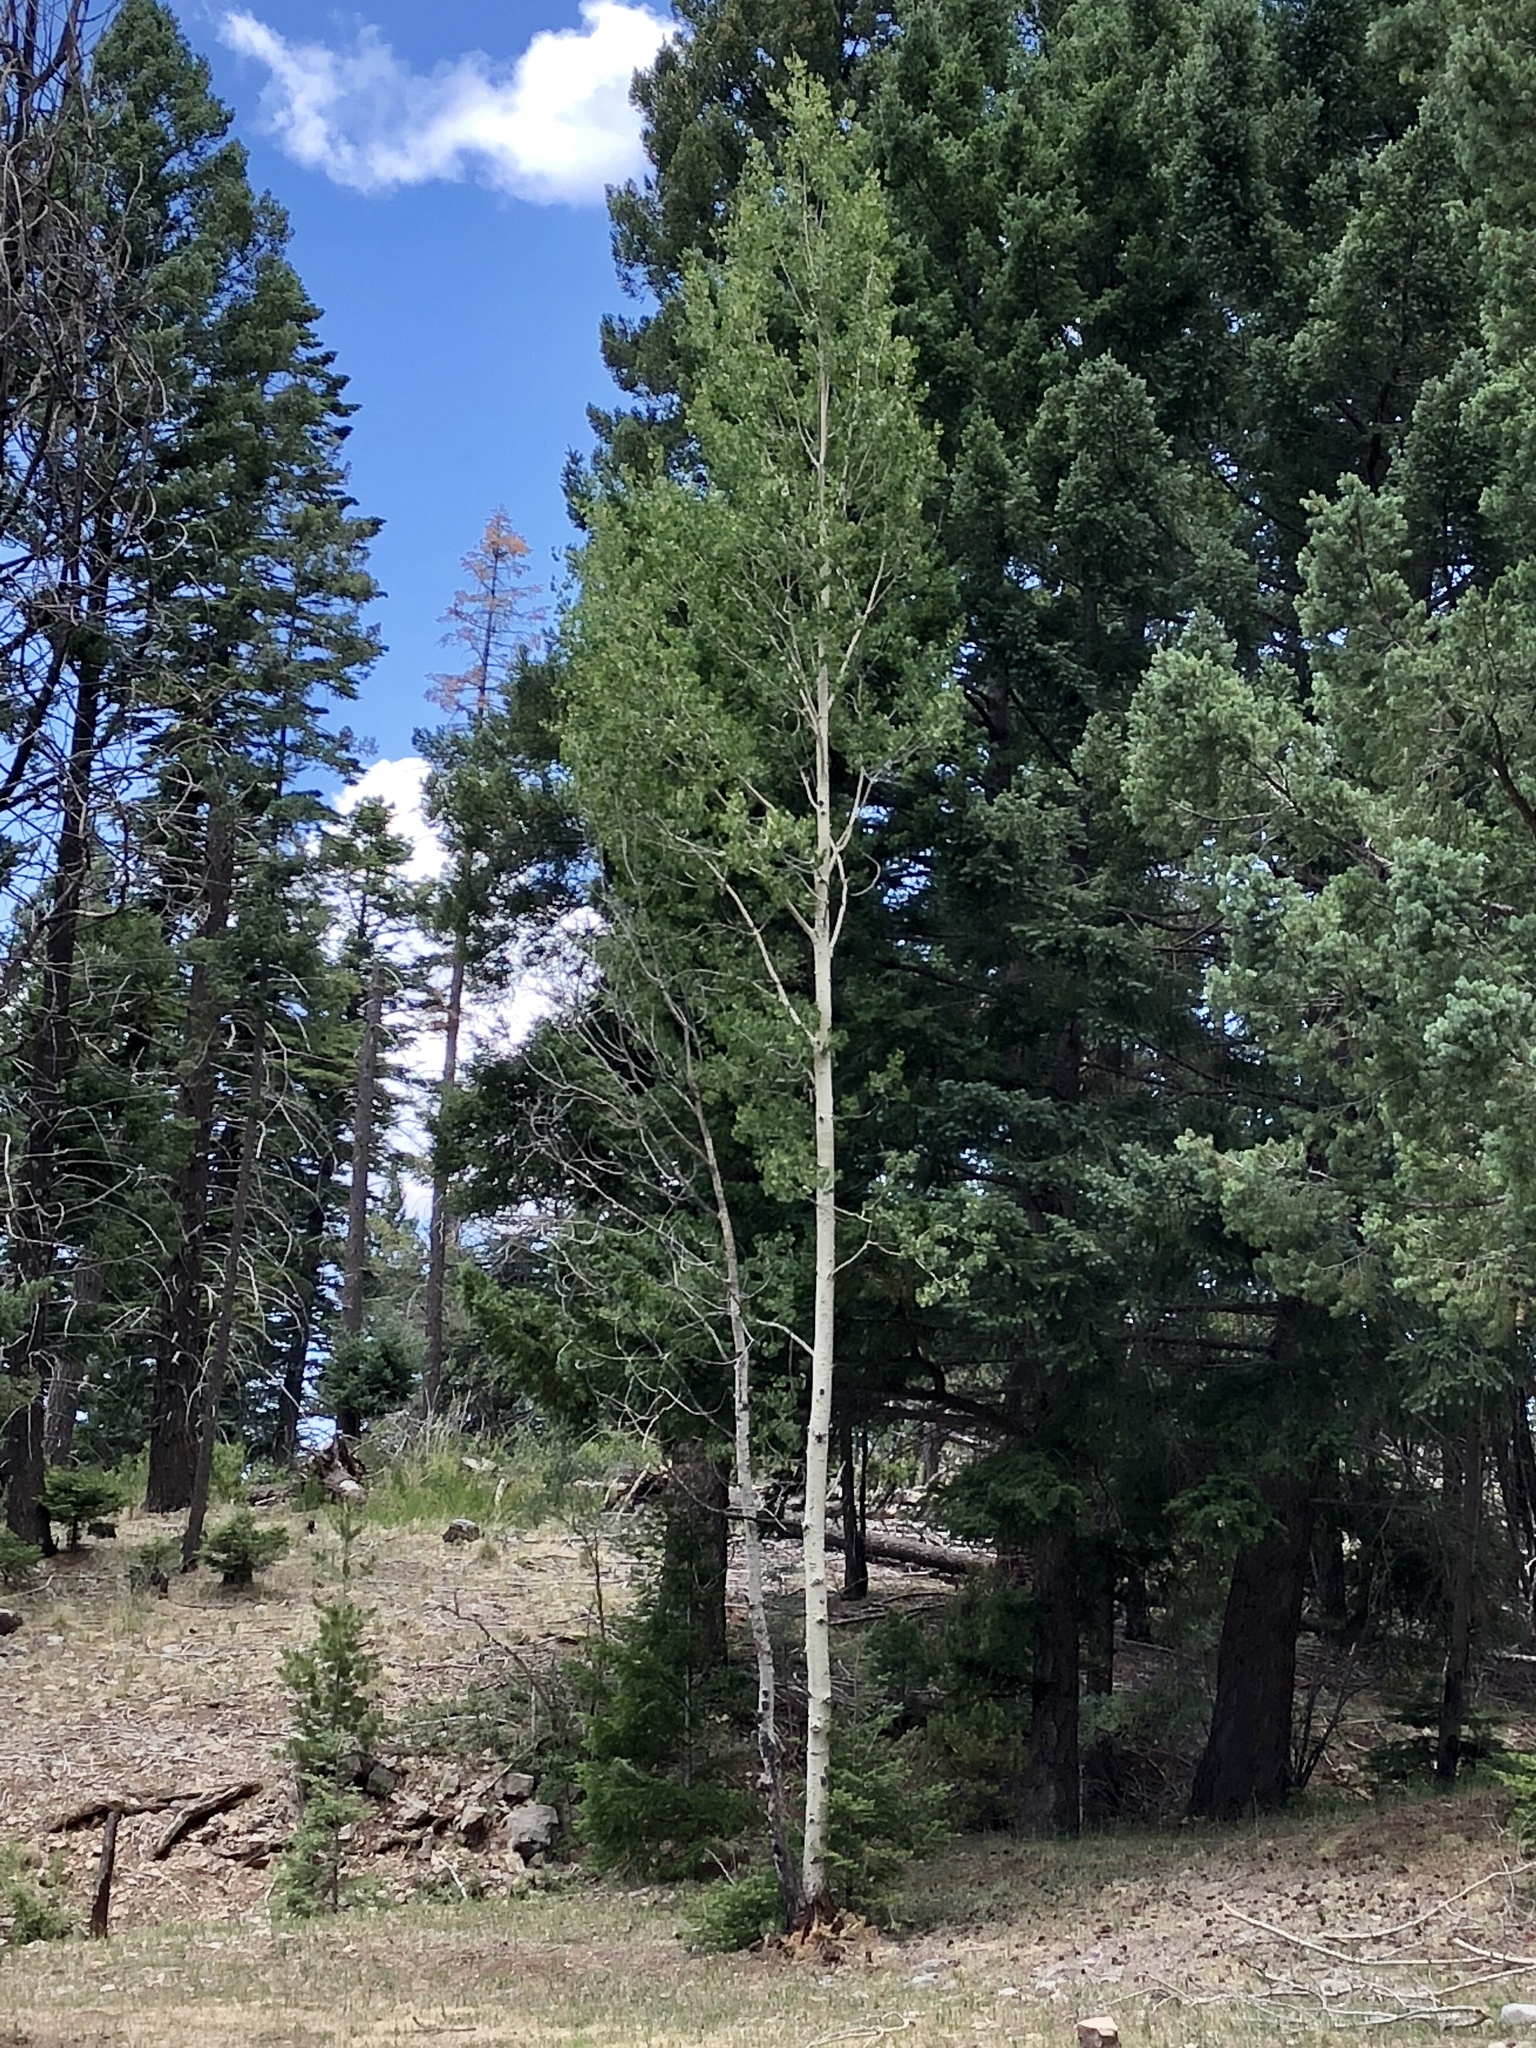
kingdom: Plantae
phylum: Tracheophyta
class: Magnoliopsida
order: Malpighiales
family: Salicaceae
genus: Populus
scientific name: Populus tremuloides
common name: Quaking aspen
